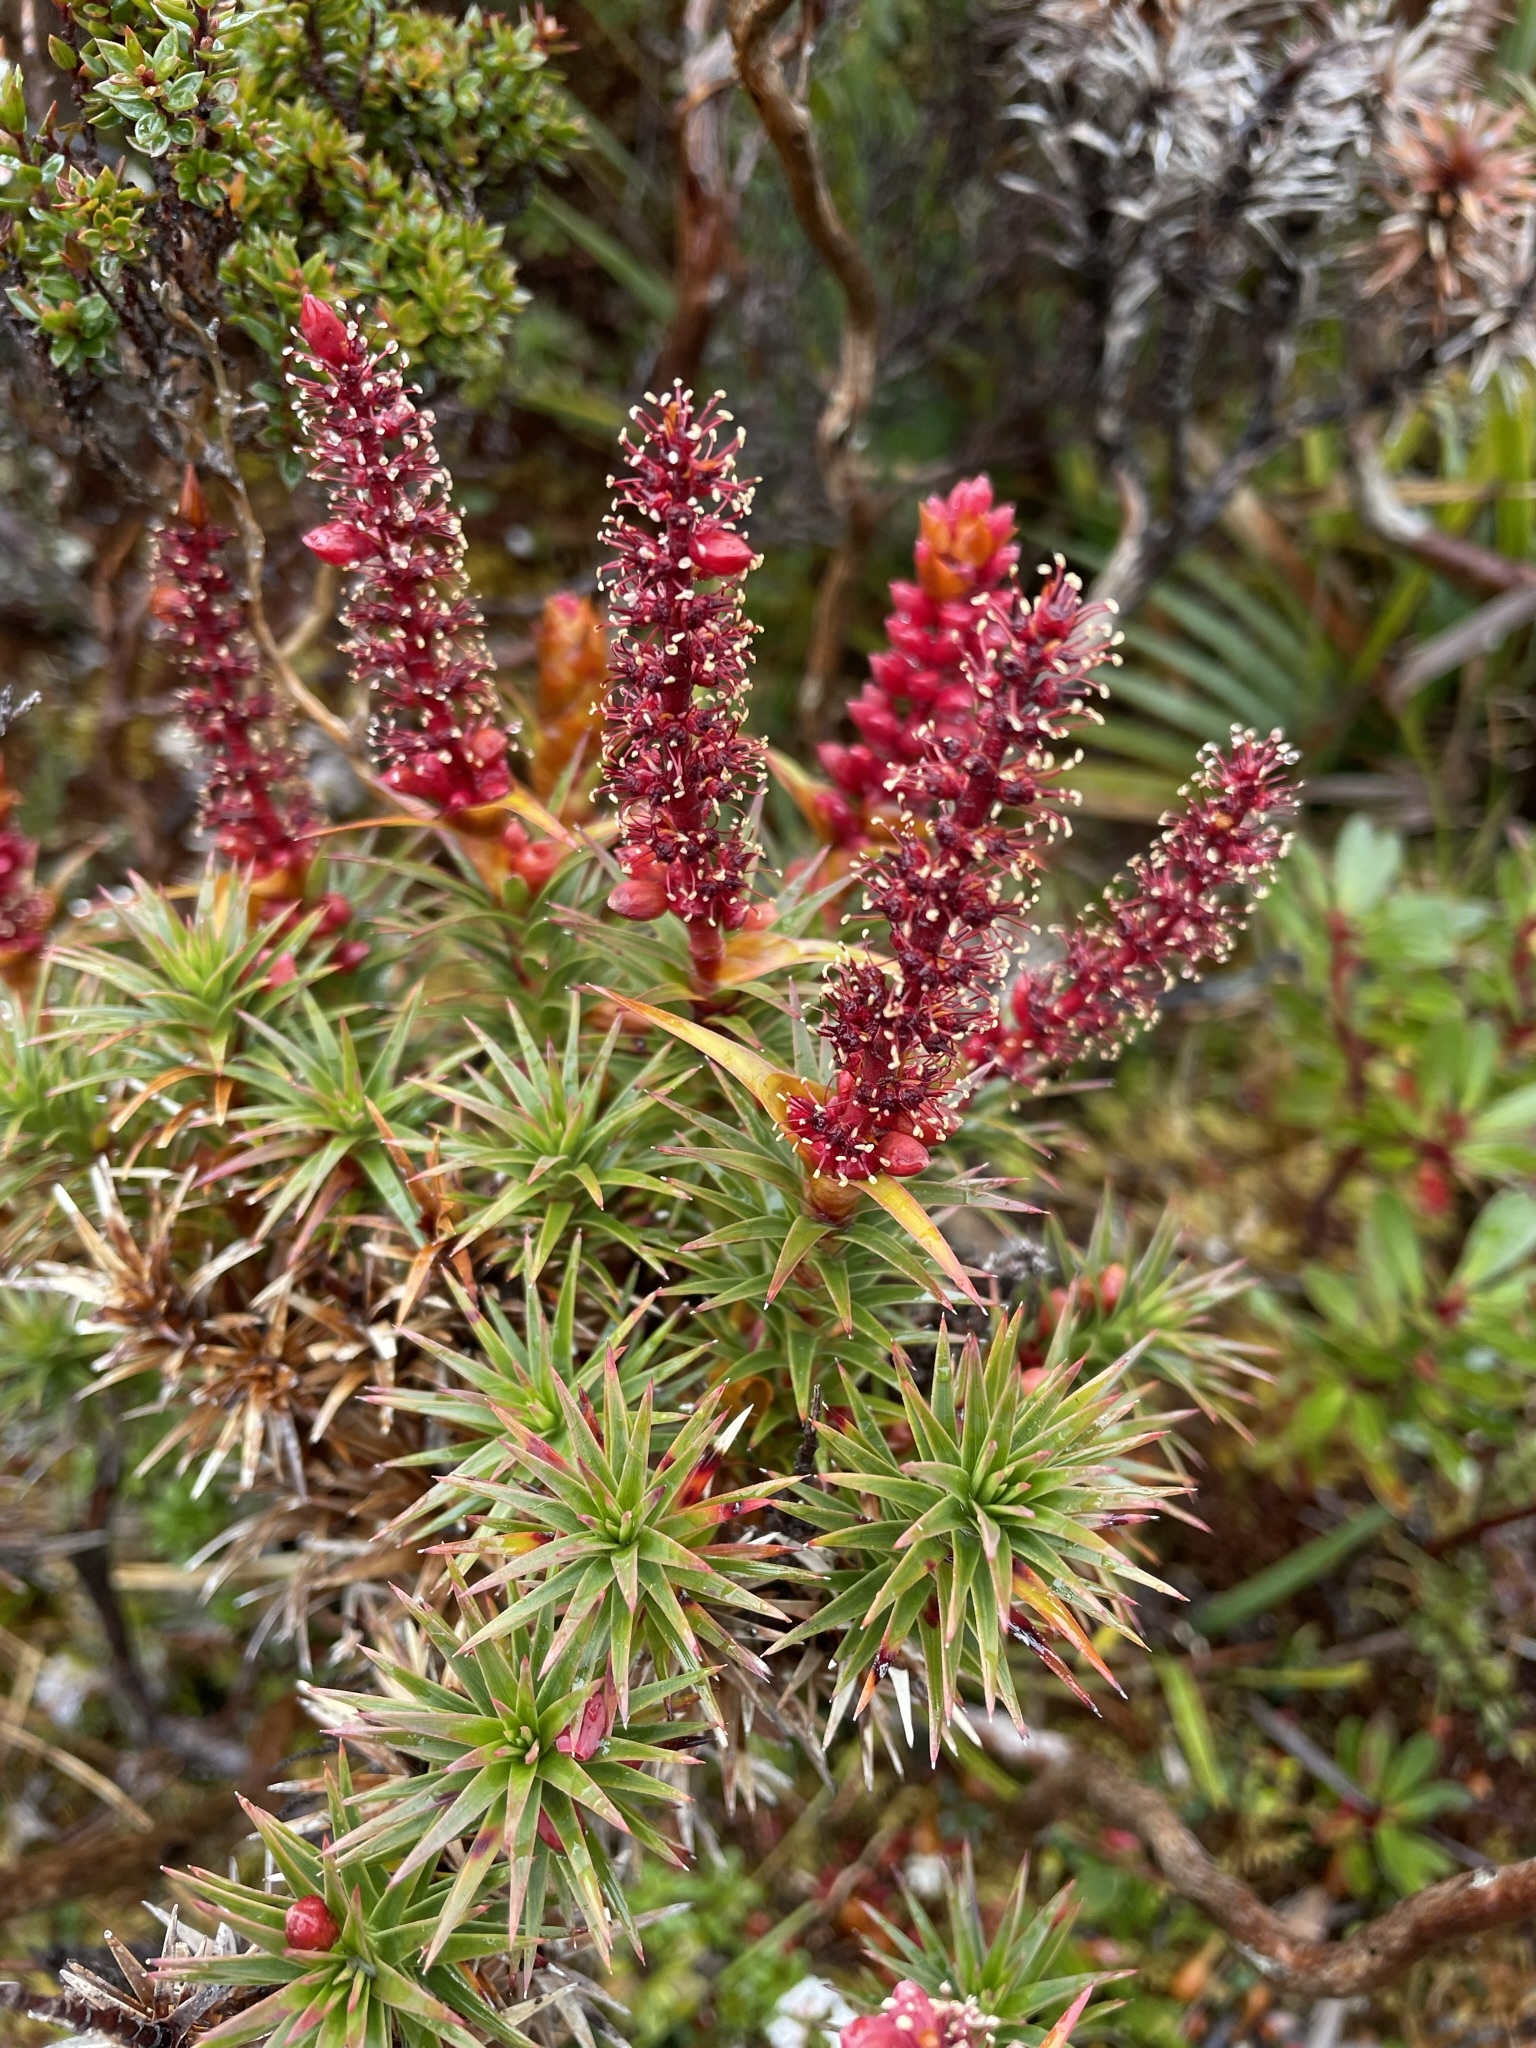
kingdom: Plantae
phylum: Tracheophyta
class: Magnoliopsida
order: Ericales
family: Ericaceae
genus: Dracophyllum
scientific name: Dracophyllum persistentifolium
